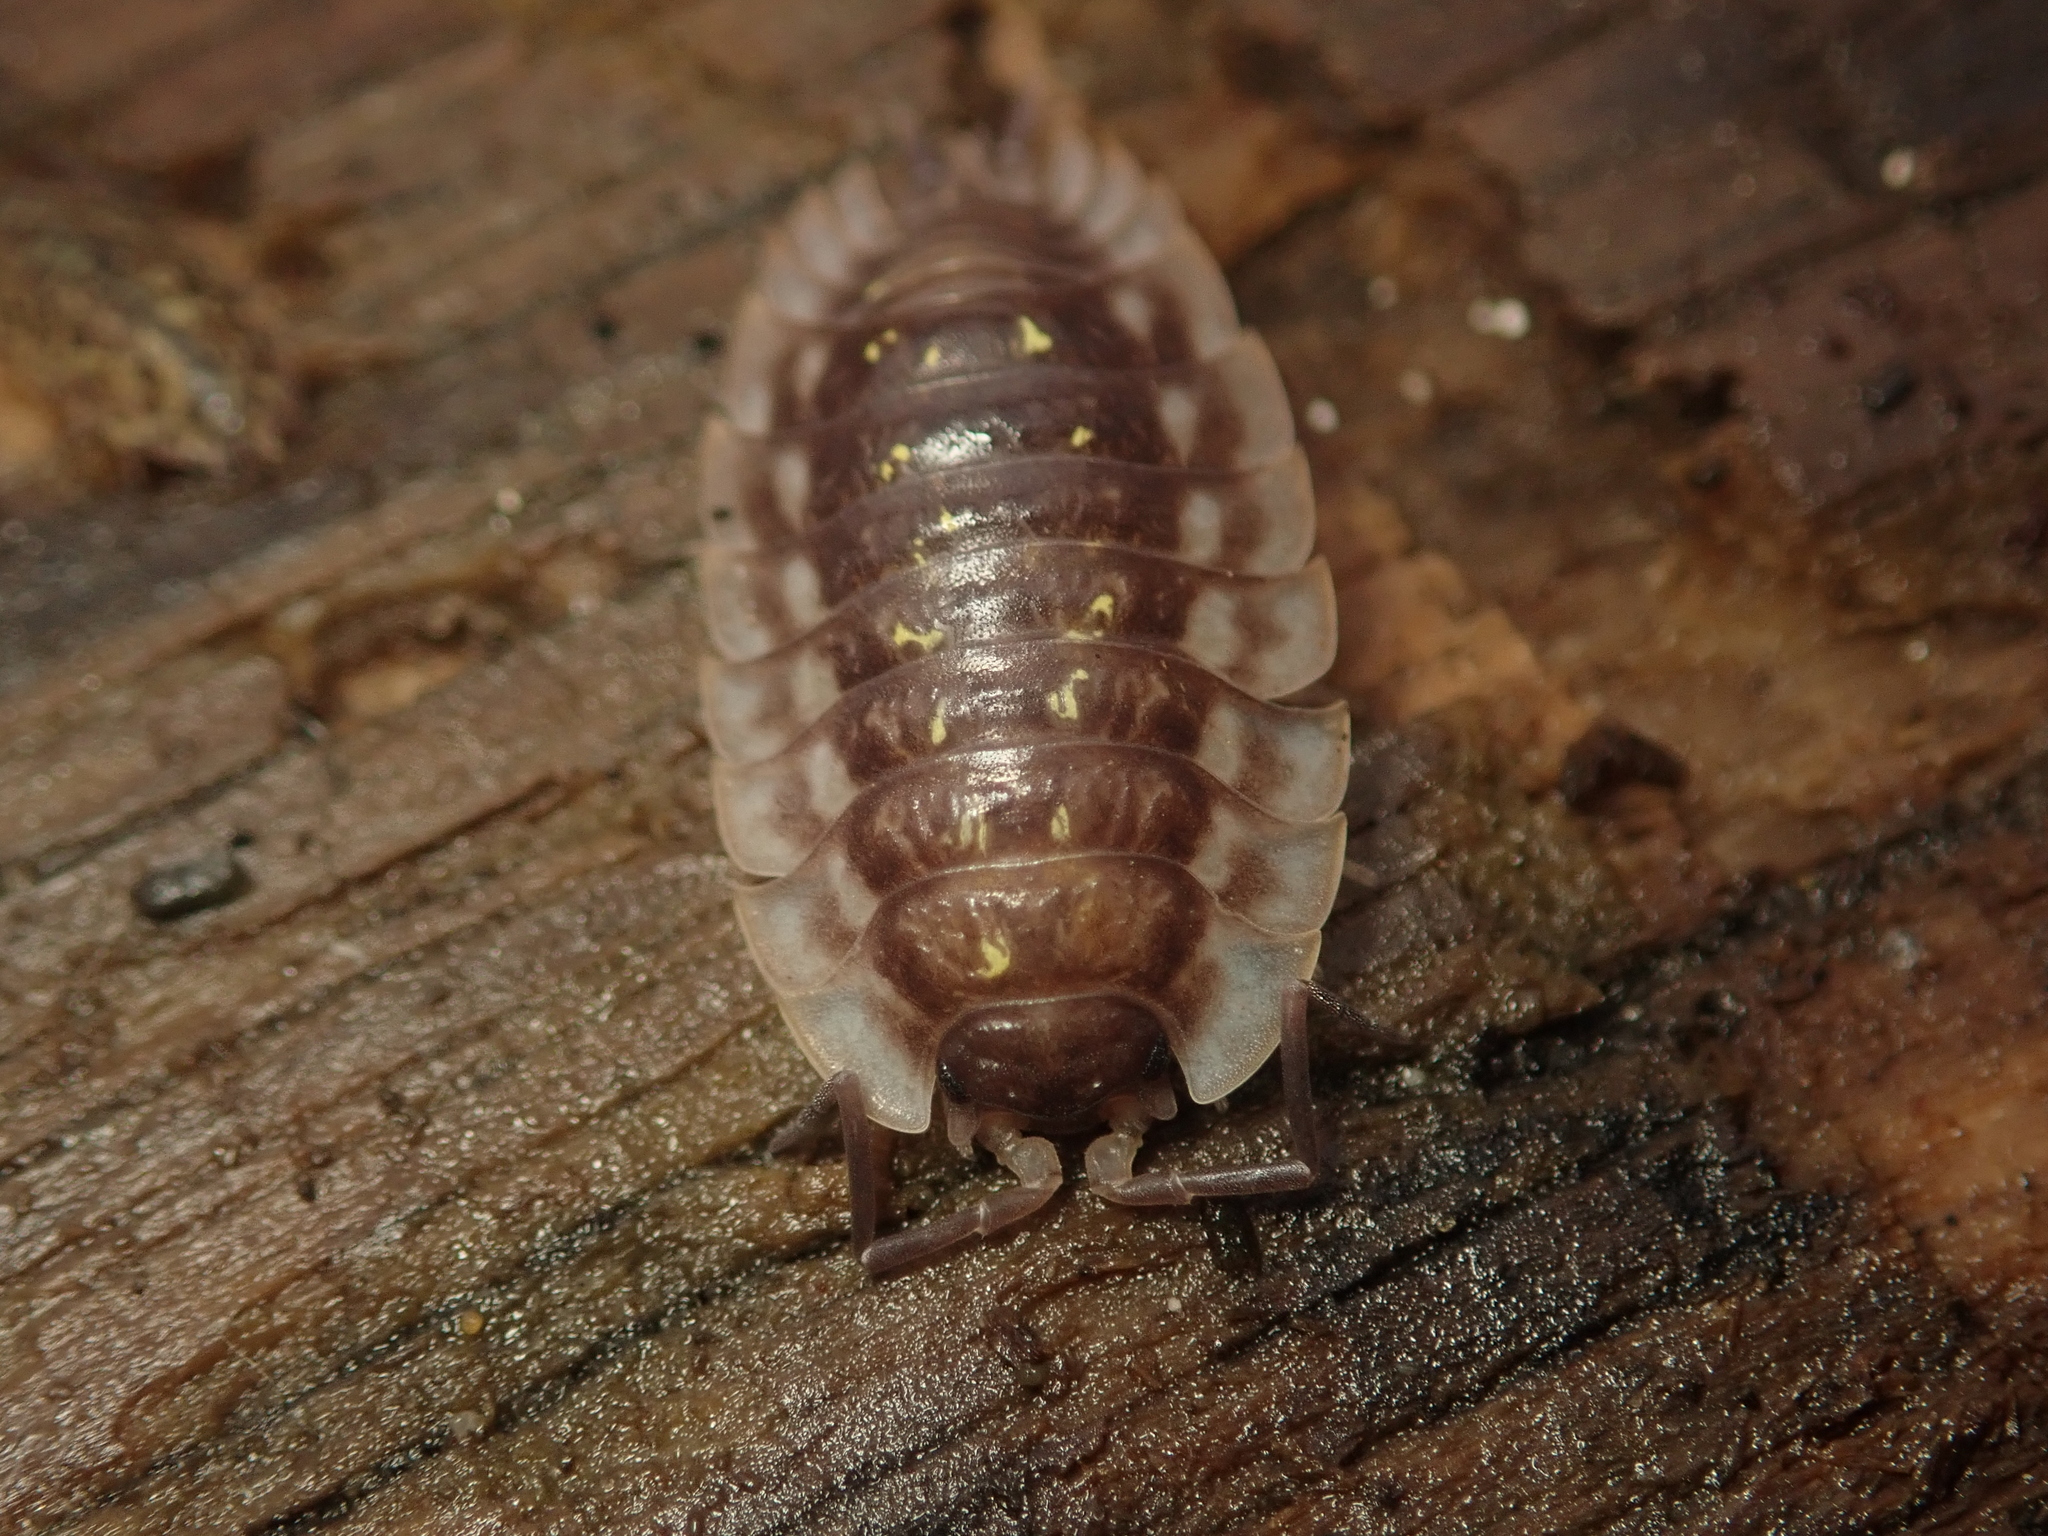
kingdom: Animalia
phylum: Arthropoda
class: Malacostraca
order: Isopoda
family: Oniscidae
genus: Oniscus
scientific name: Oniscus asellus
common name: Common shiny woodlouse
